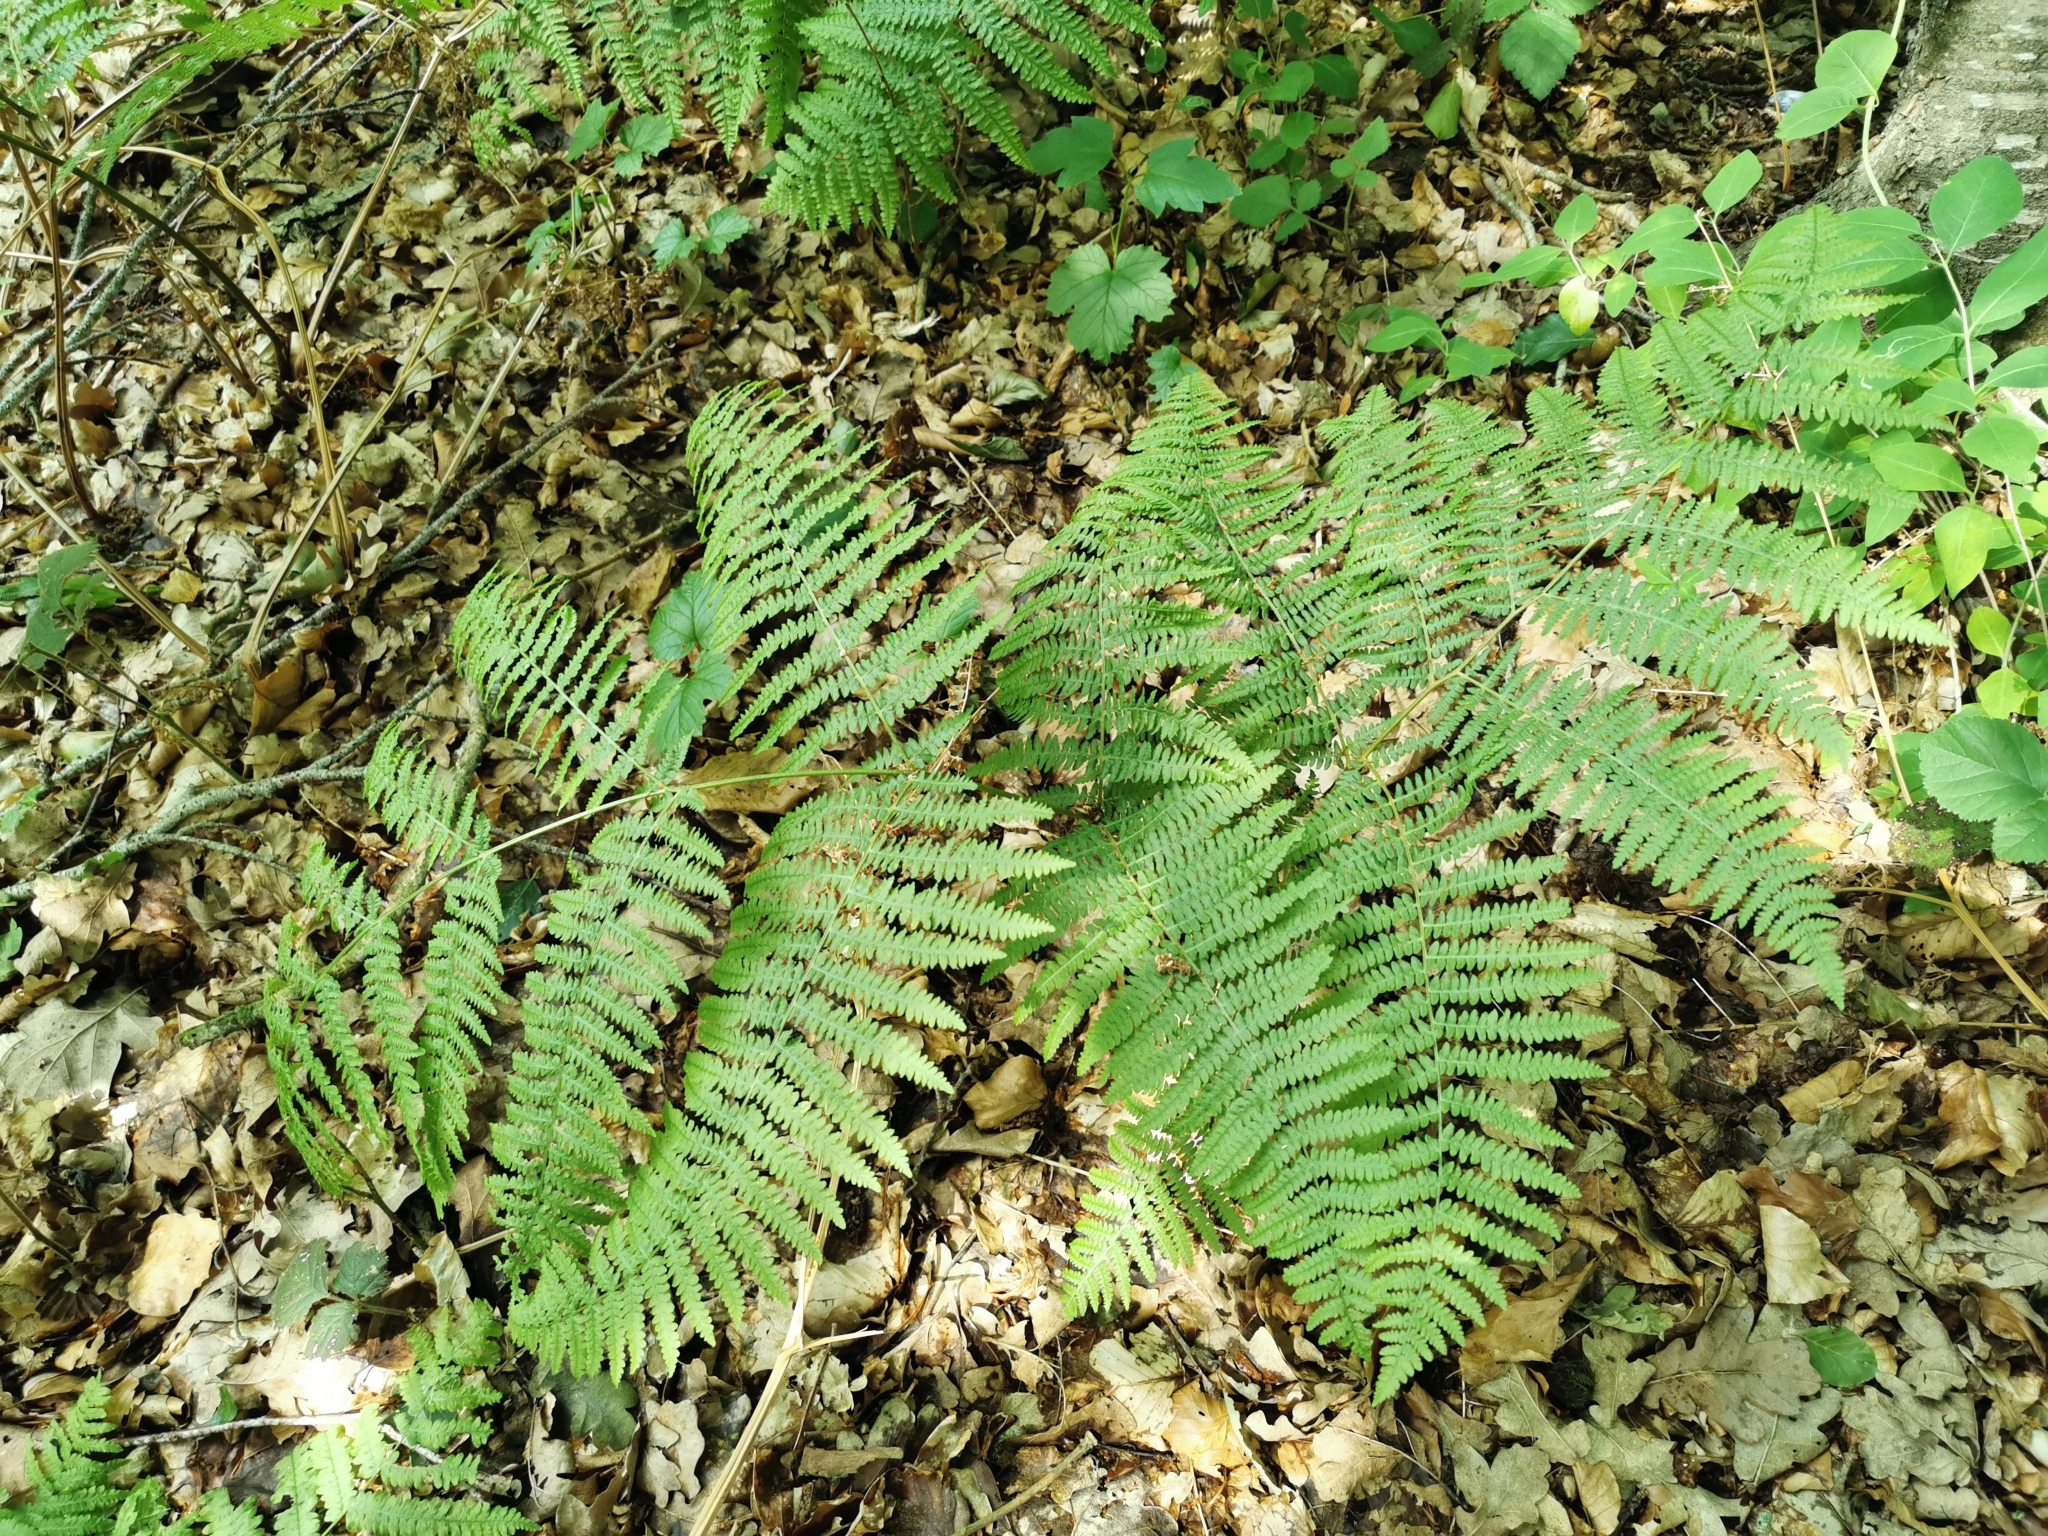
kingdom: Plantae
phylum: Tracheophyta
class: Polypodiopsida
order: Polypodiales
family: Dennstaedtiaceae
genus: Pteridium
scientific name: Pteridium aquilinum
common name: Bracken
